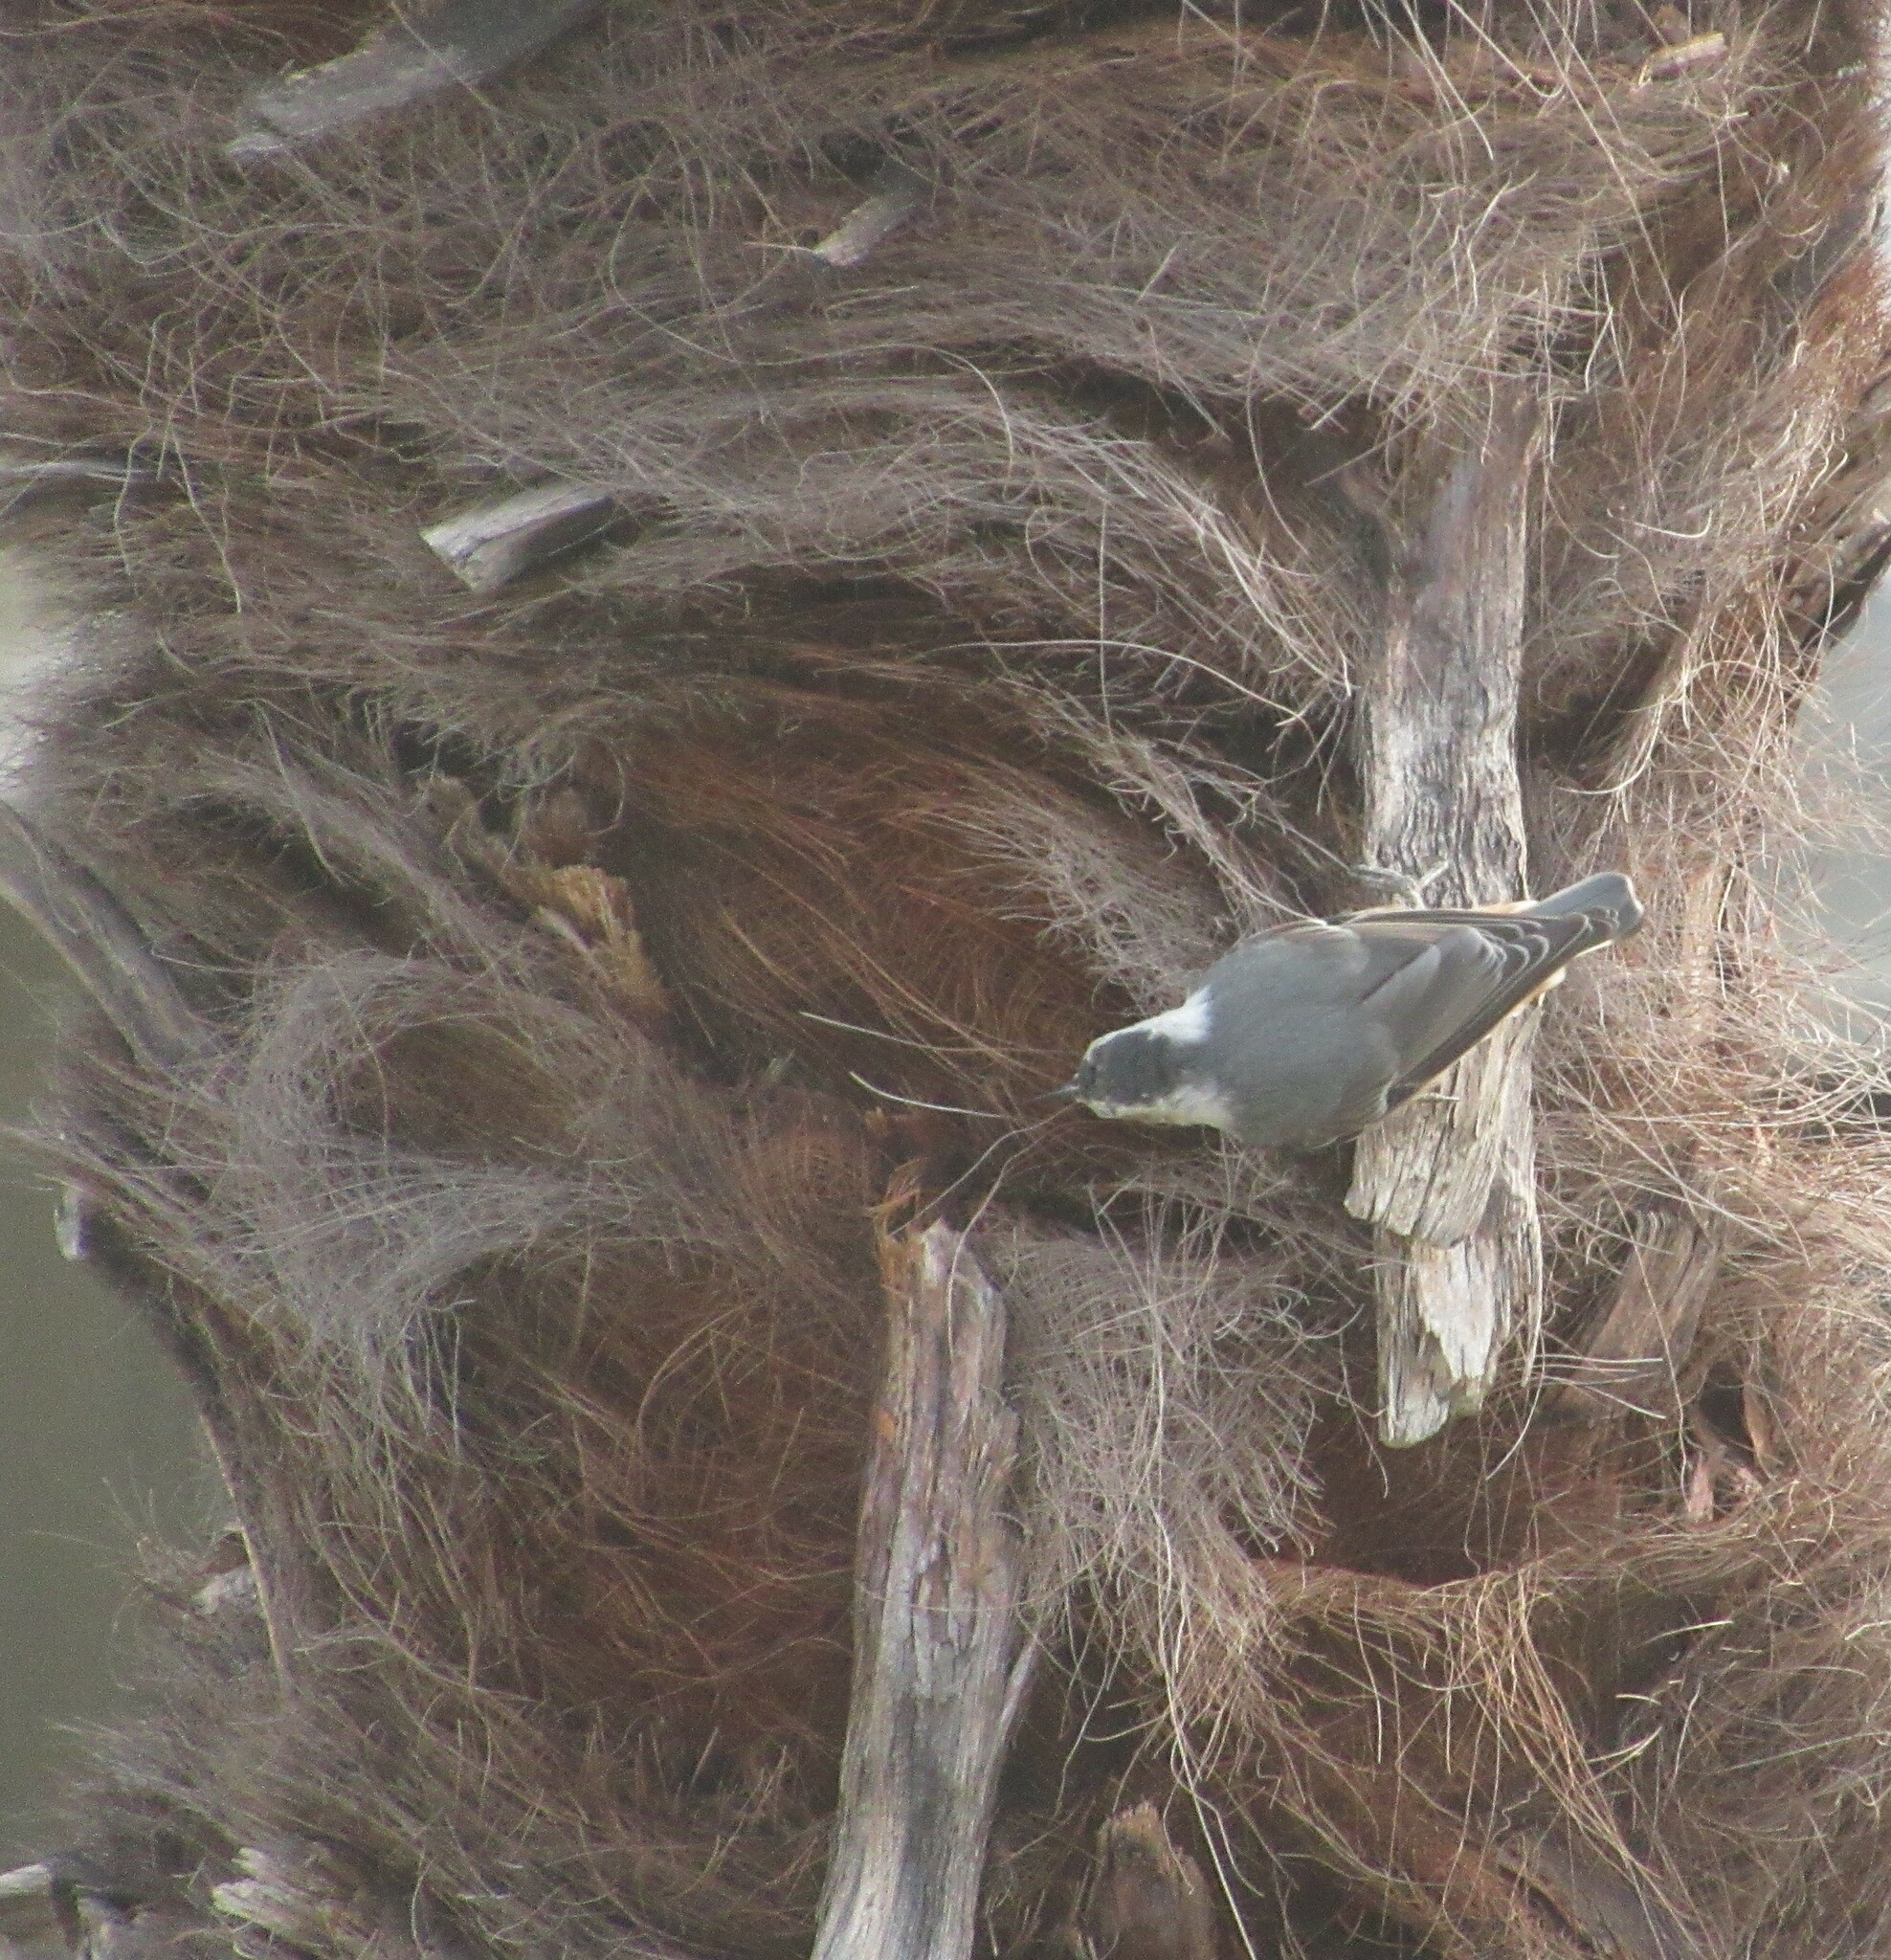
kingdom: Animalia
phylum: Chordata
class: Aves
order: Passeriformes
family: Sittidae
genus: Sitta
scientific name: Sitta carolinensis
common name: White-breasted nuthatch
